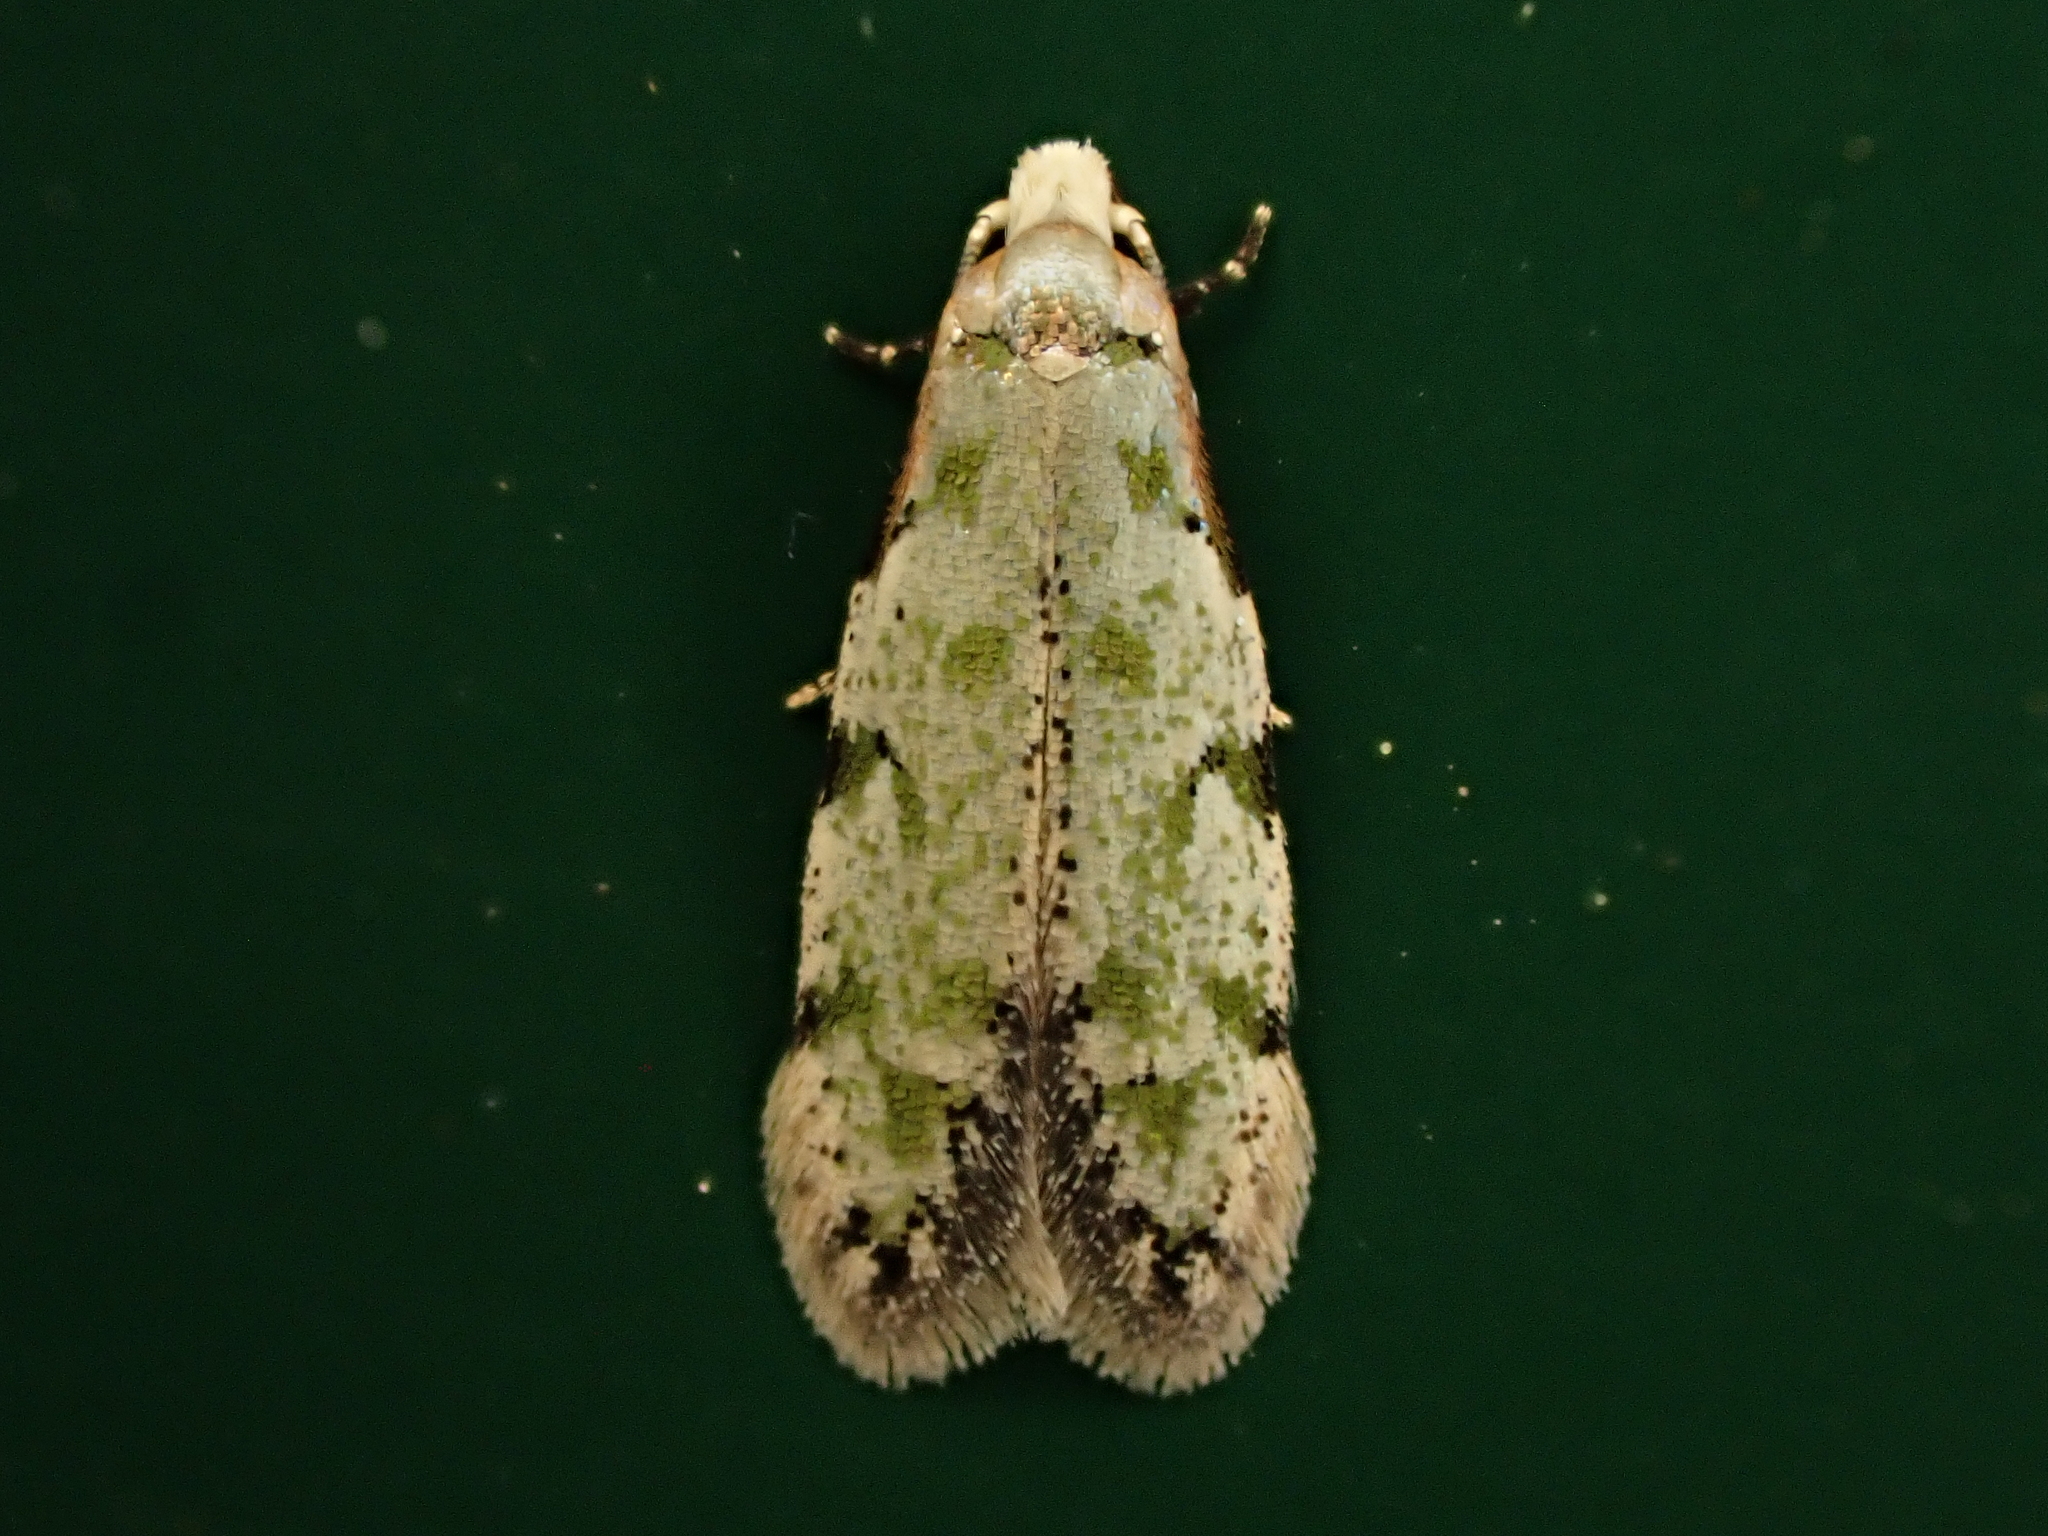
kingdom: Animalia
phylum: Arthropoda
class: Insecta
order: Lepidoptera
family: Tineidae
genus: Endophthora
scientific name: Endophthora pallacopis
